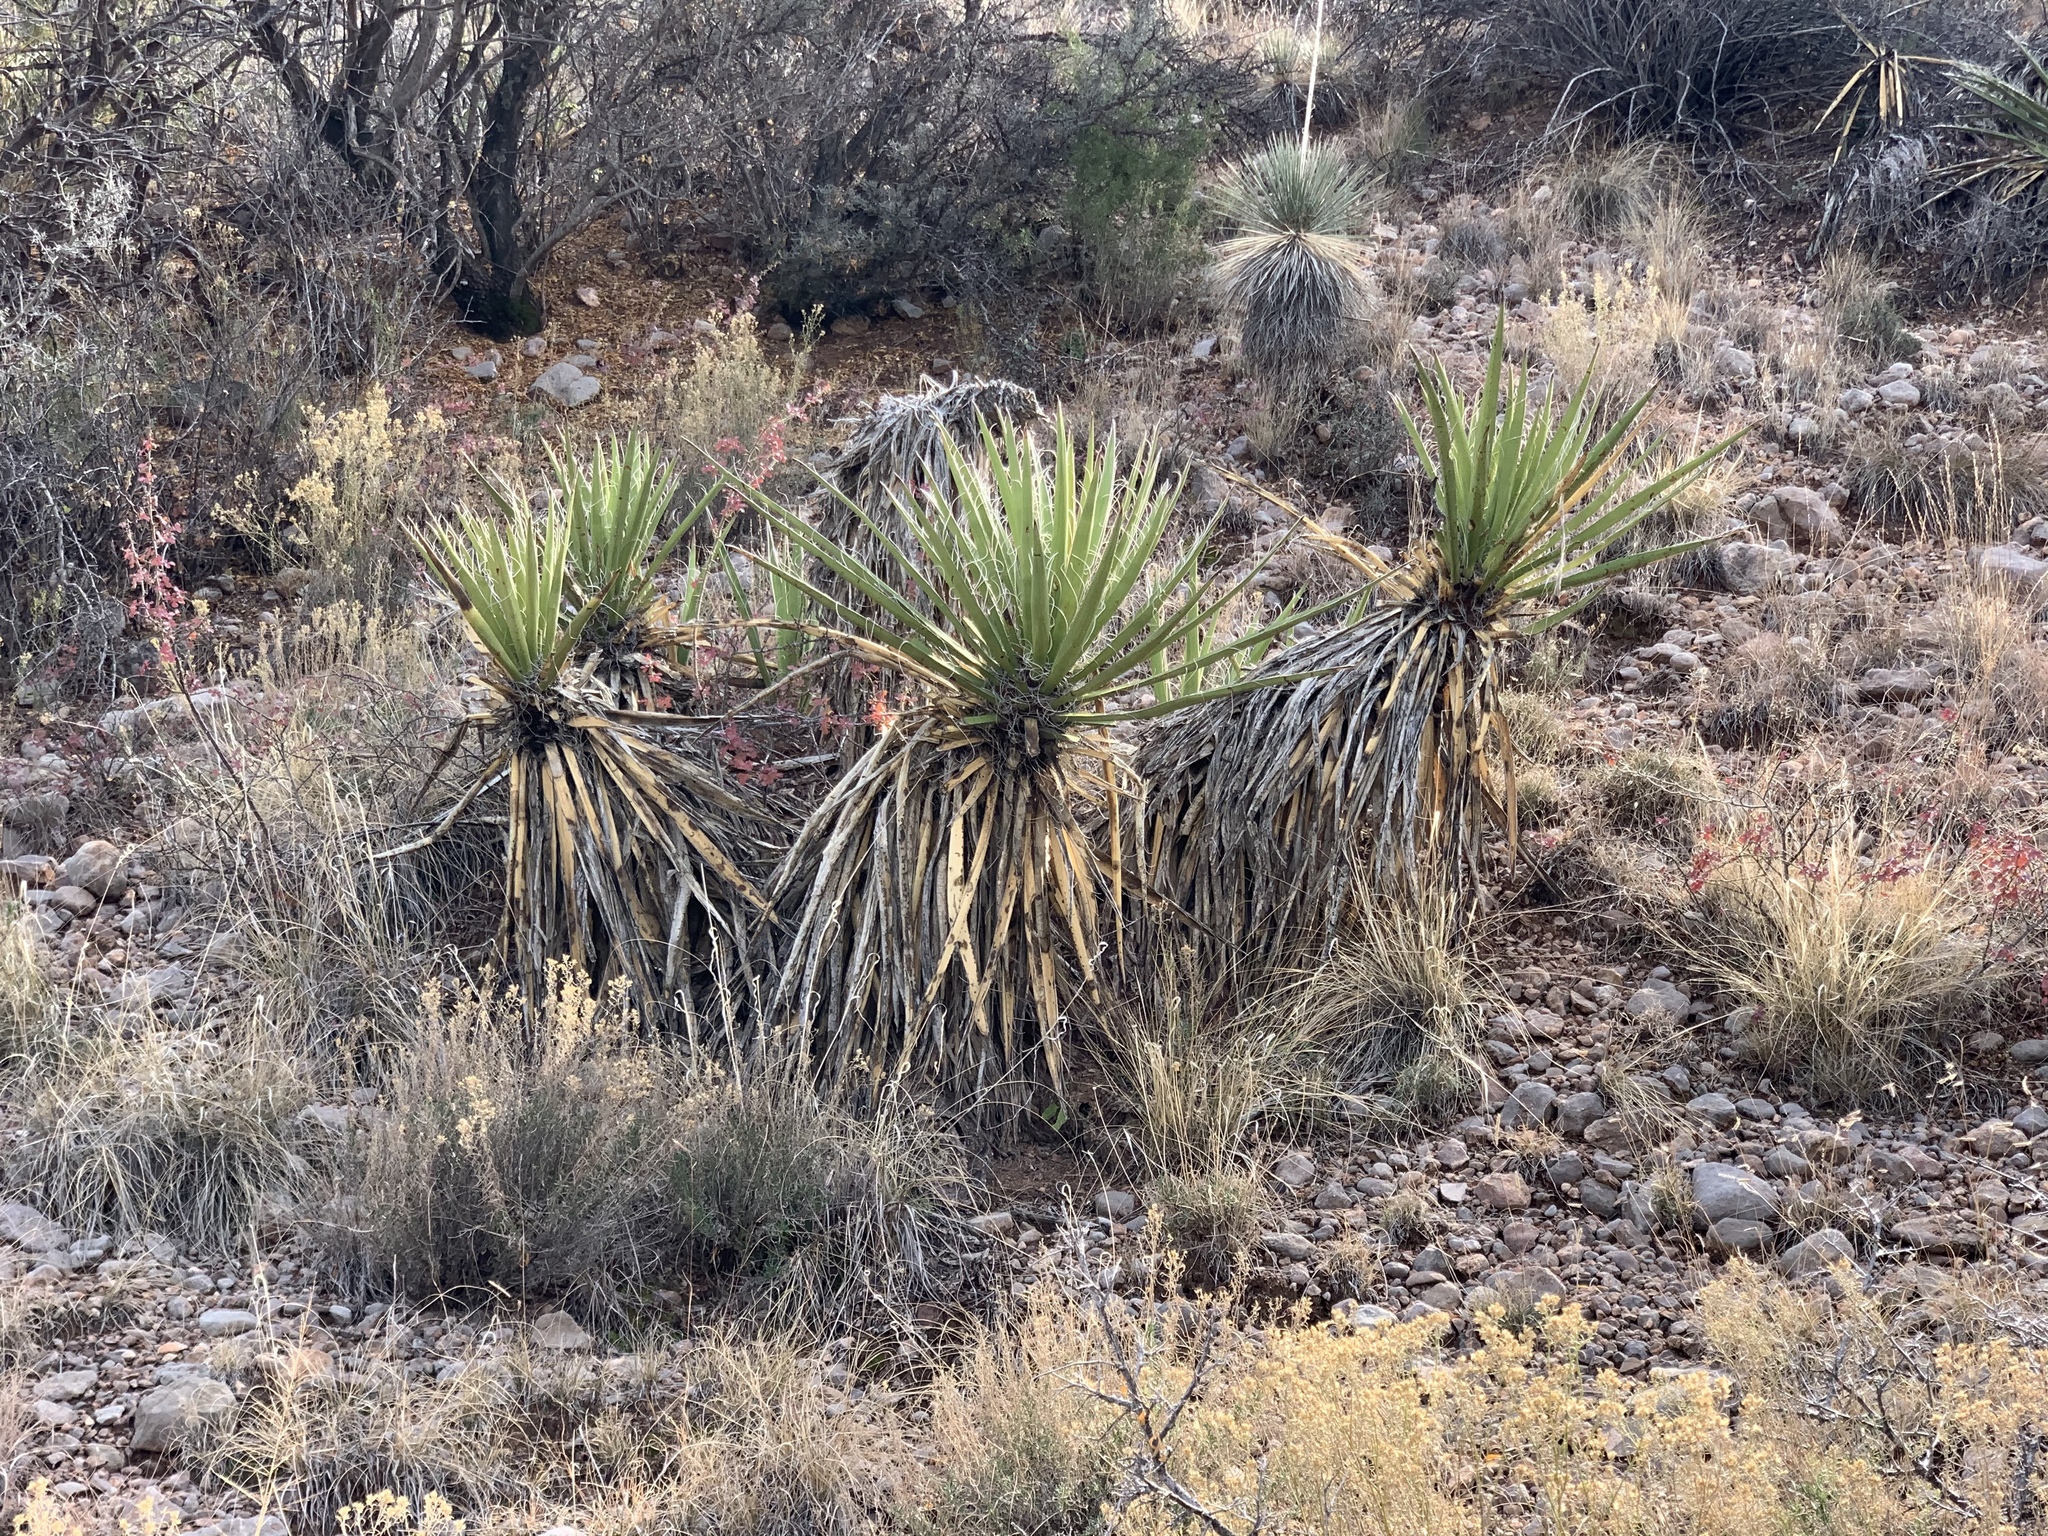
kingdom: Plantae
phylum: Tracheophyta
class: Liliopsida
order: Asparagales
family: Asparagaceae
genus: Yucca
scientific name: Yucca baccata
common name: Banana yucca
